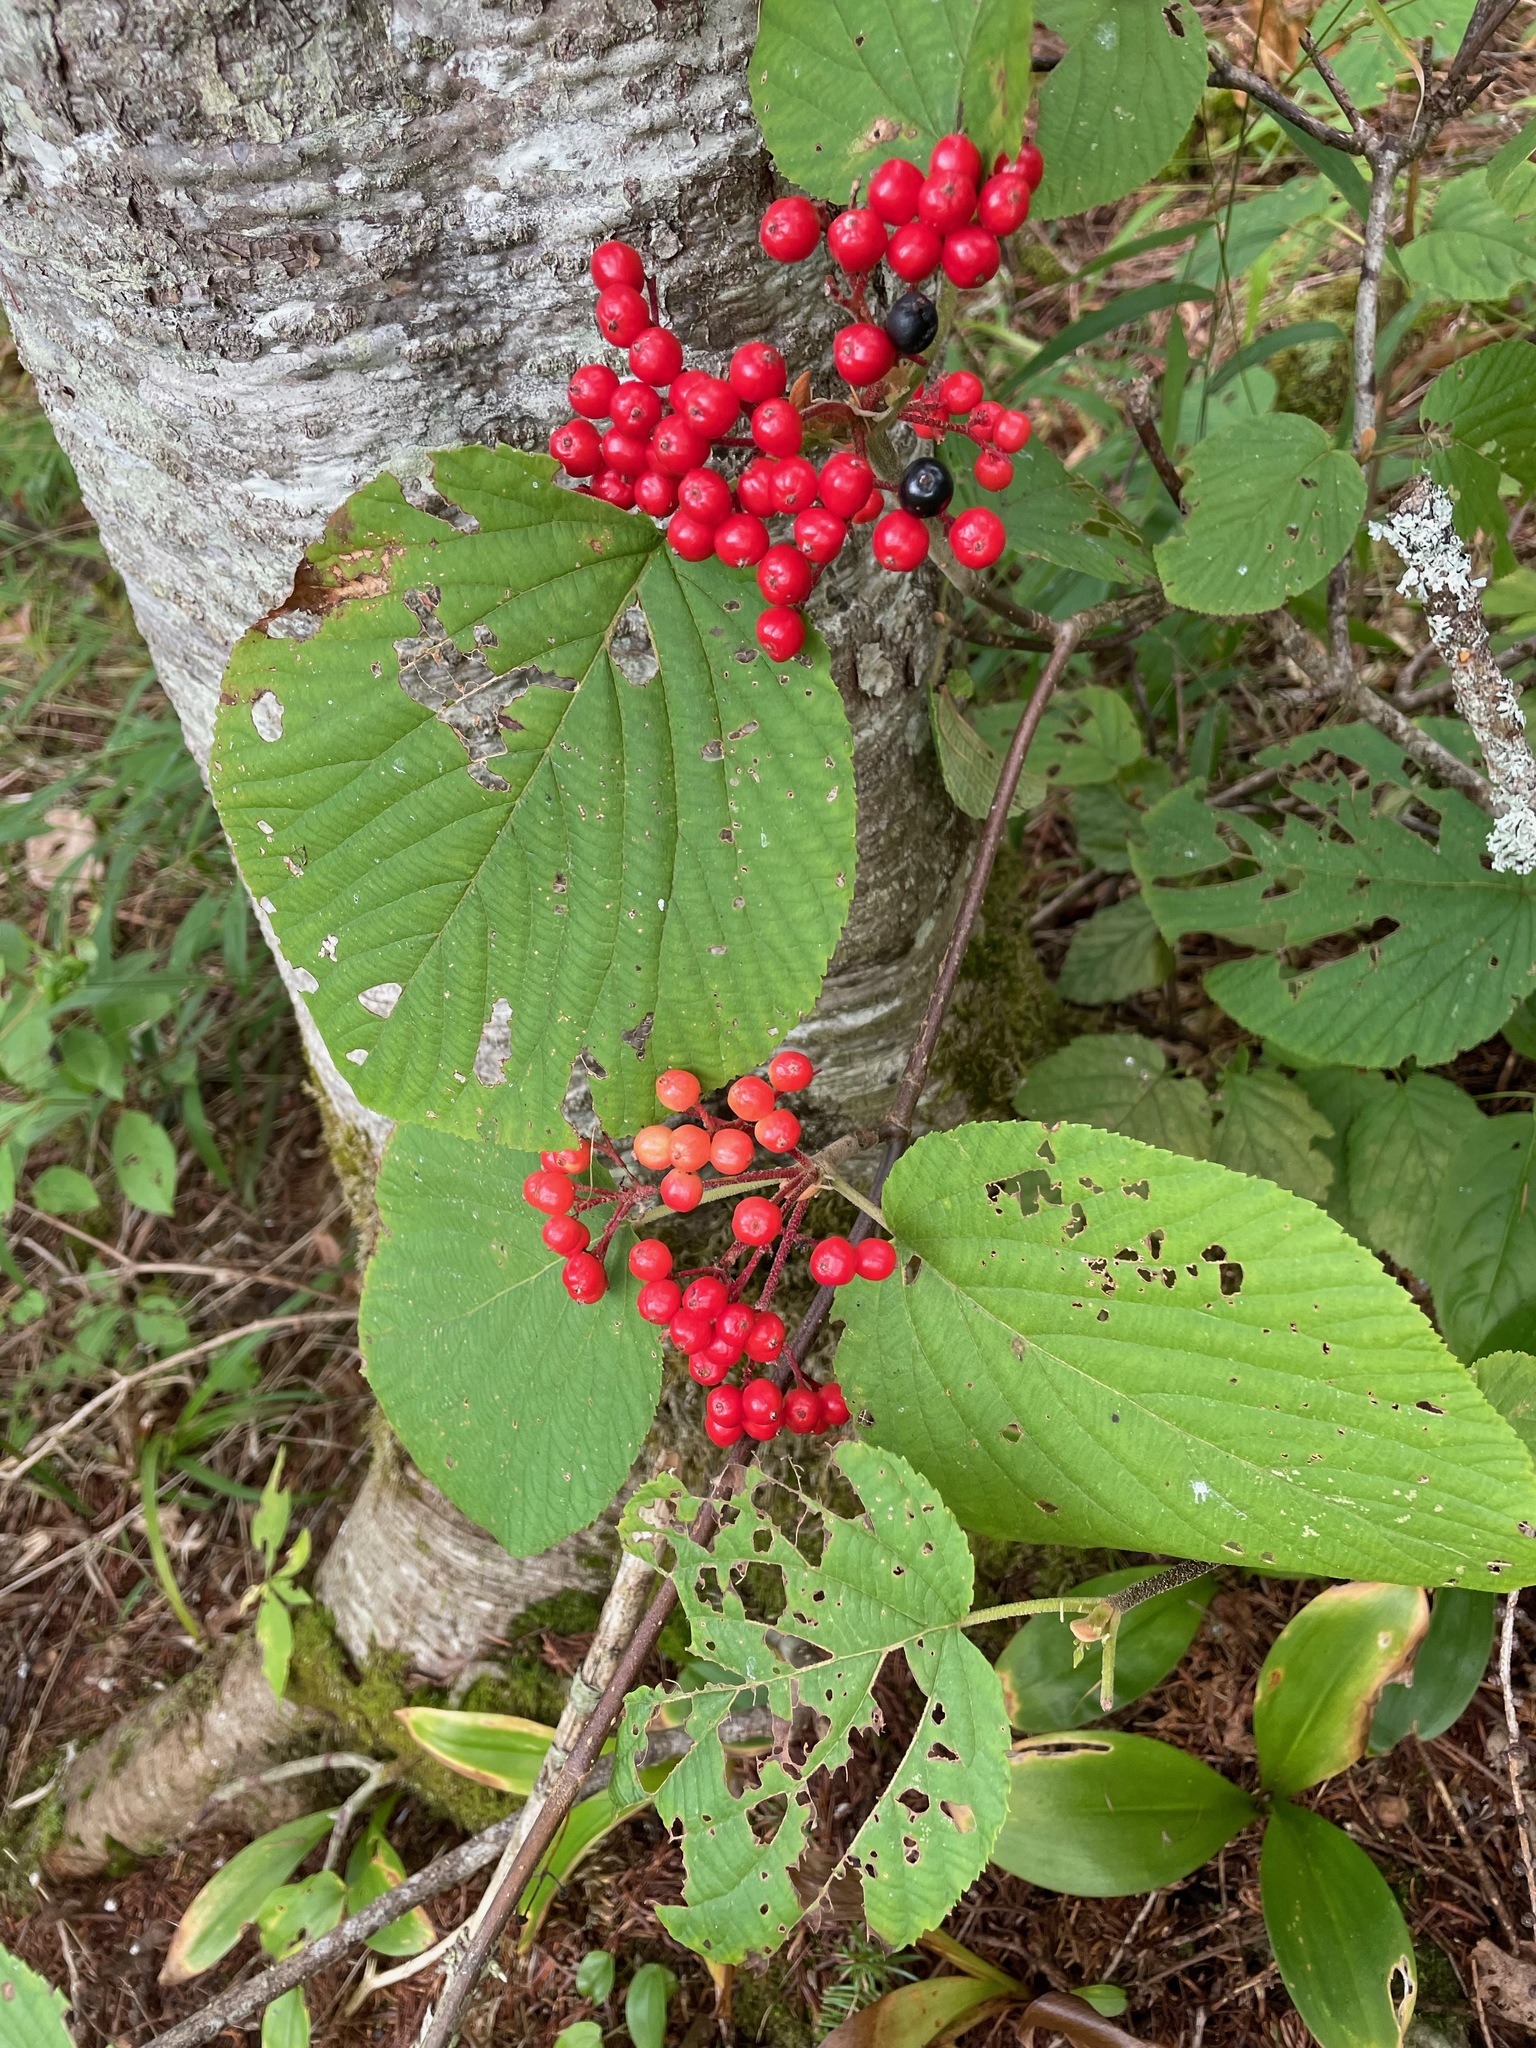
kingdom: Plantae
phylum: Tracheophyta
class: Magnoliopsida
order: Dipsacales
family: Viburnaceae
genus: Viburnum
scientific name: Viburnum lantanoides
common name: Hobblebush
